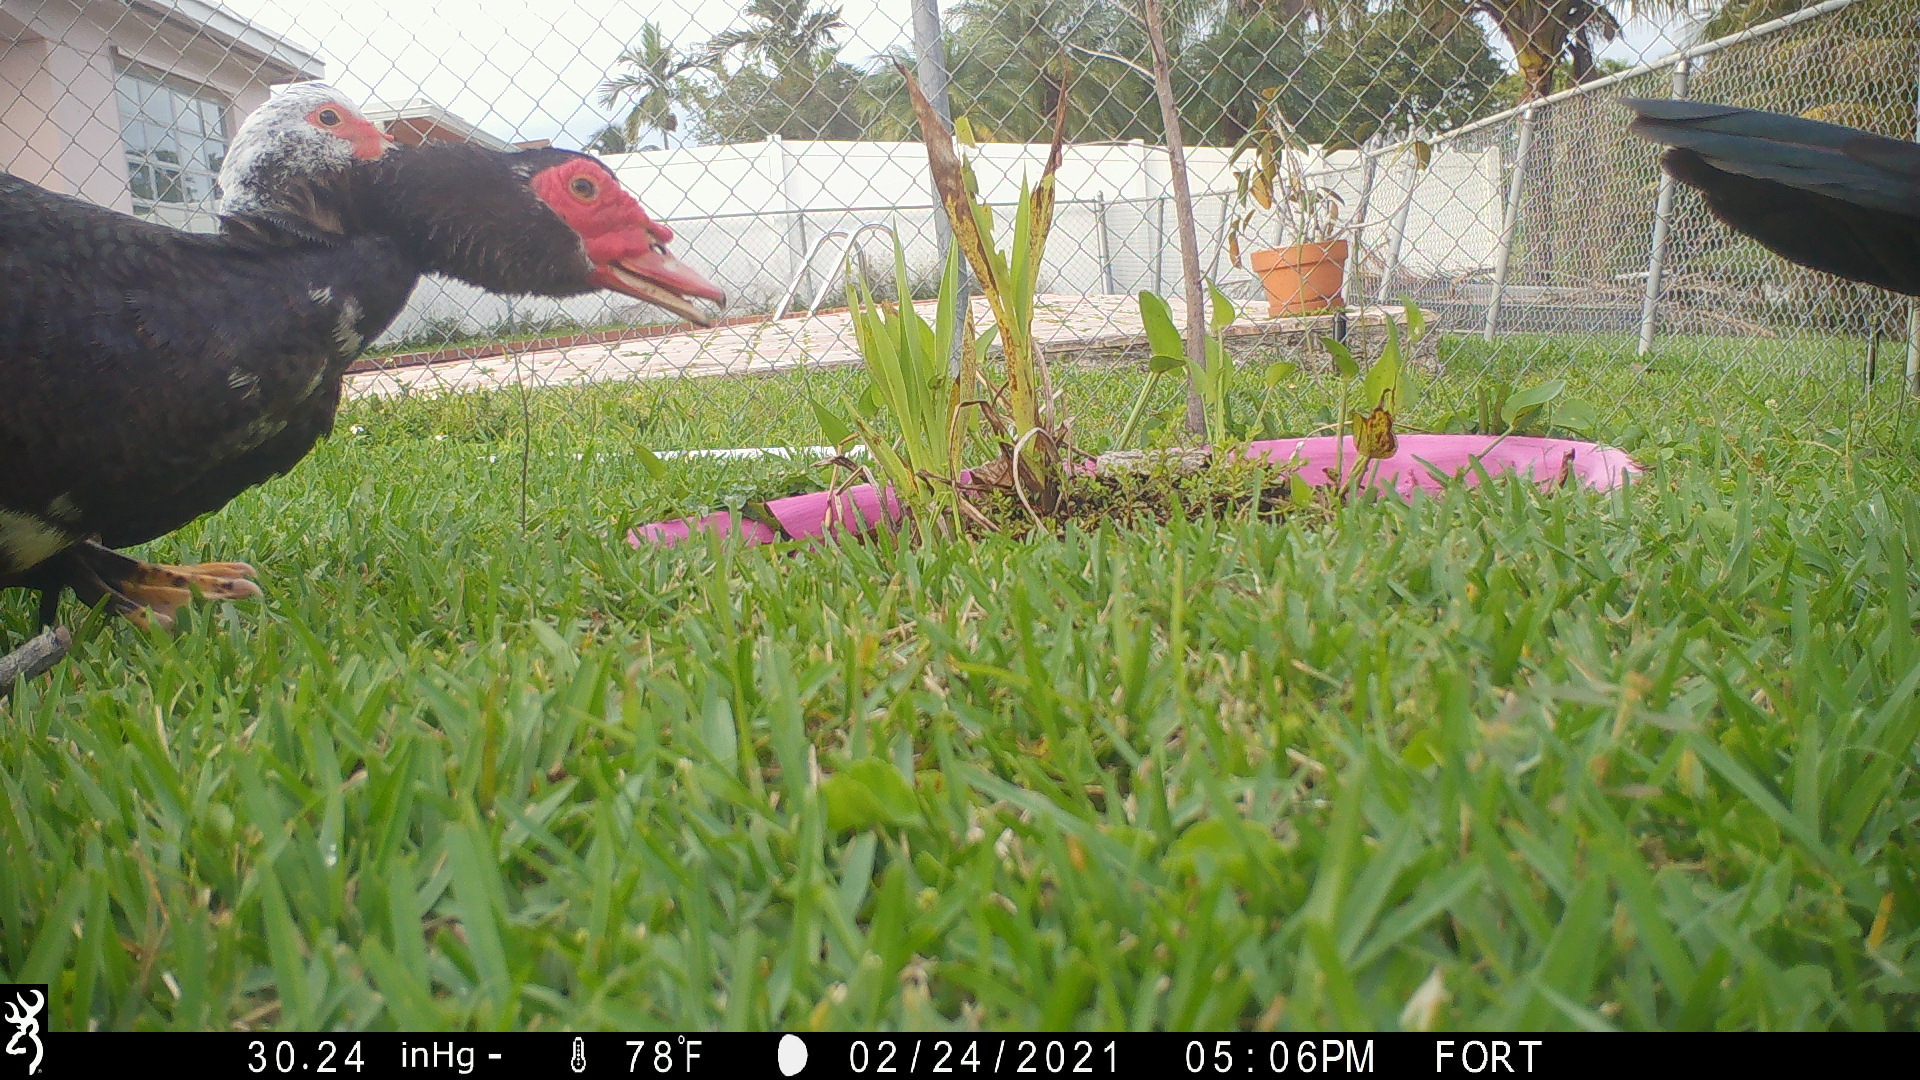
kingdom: Animalia
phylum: Chordata
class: Aves
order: Anseriformes
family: Anatidae
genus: Cairina
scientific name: Cairina moschata
